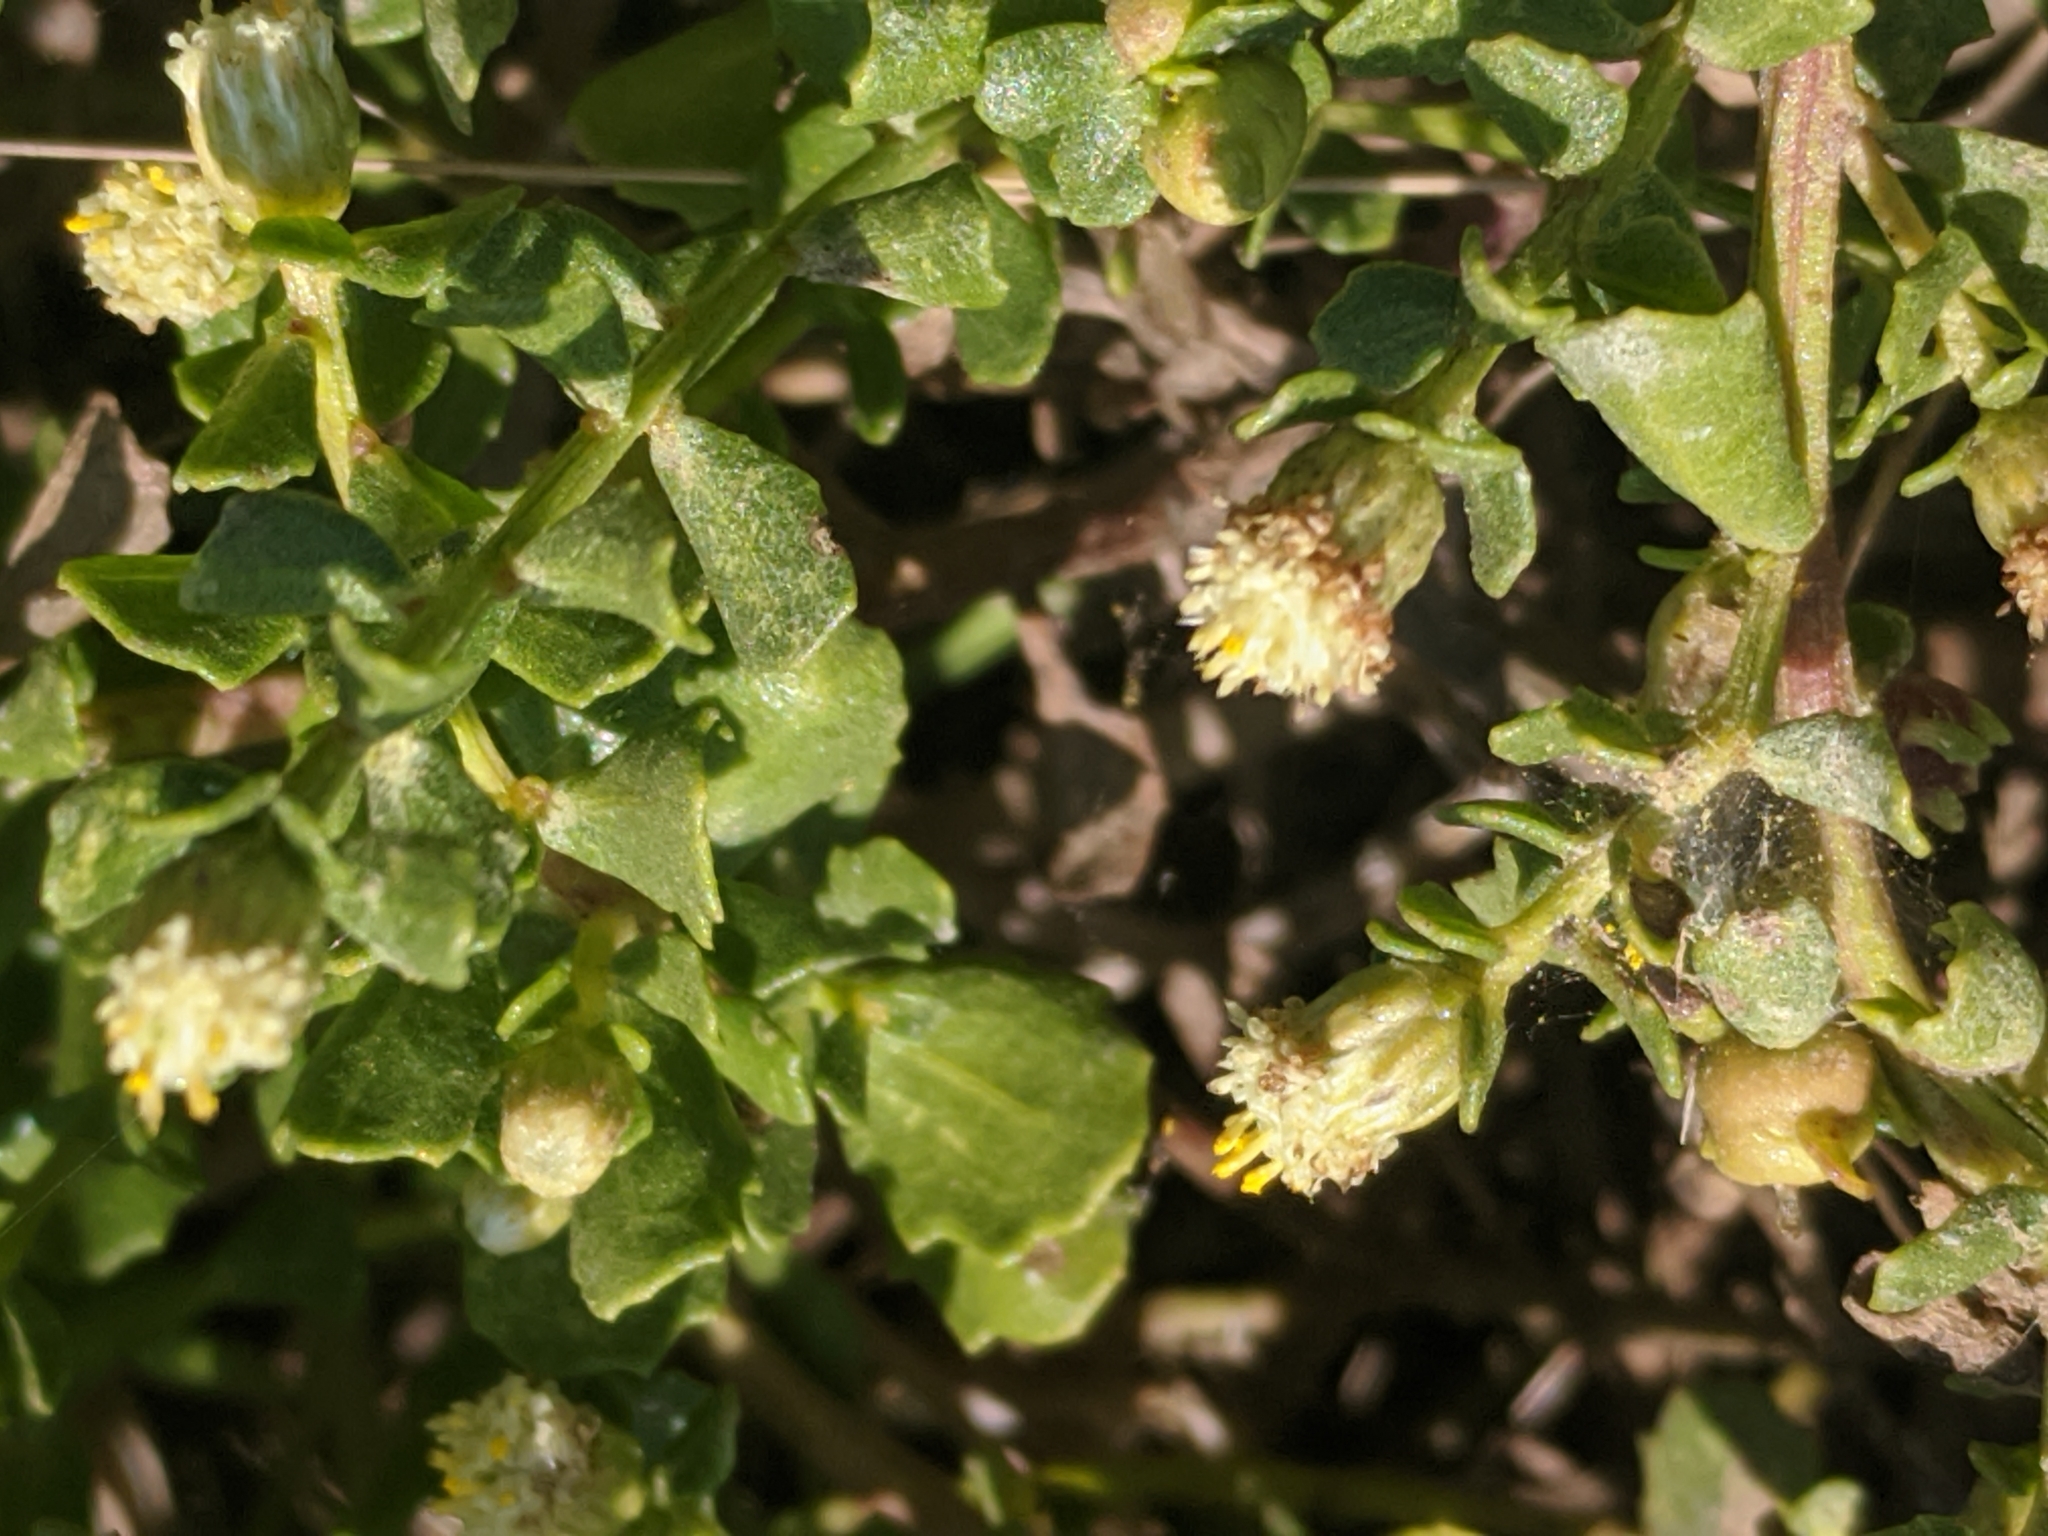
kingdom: Plantae
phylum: Tracheophyta
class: Magnoliopsida
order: Asterales
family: Asteraceae
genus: Baccharis
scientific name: Baccharis pilularis
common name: Coyotebrush
